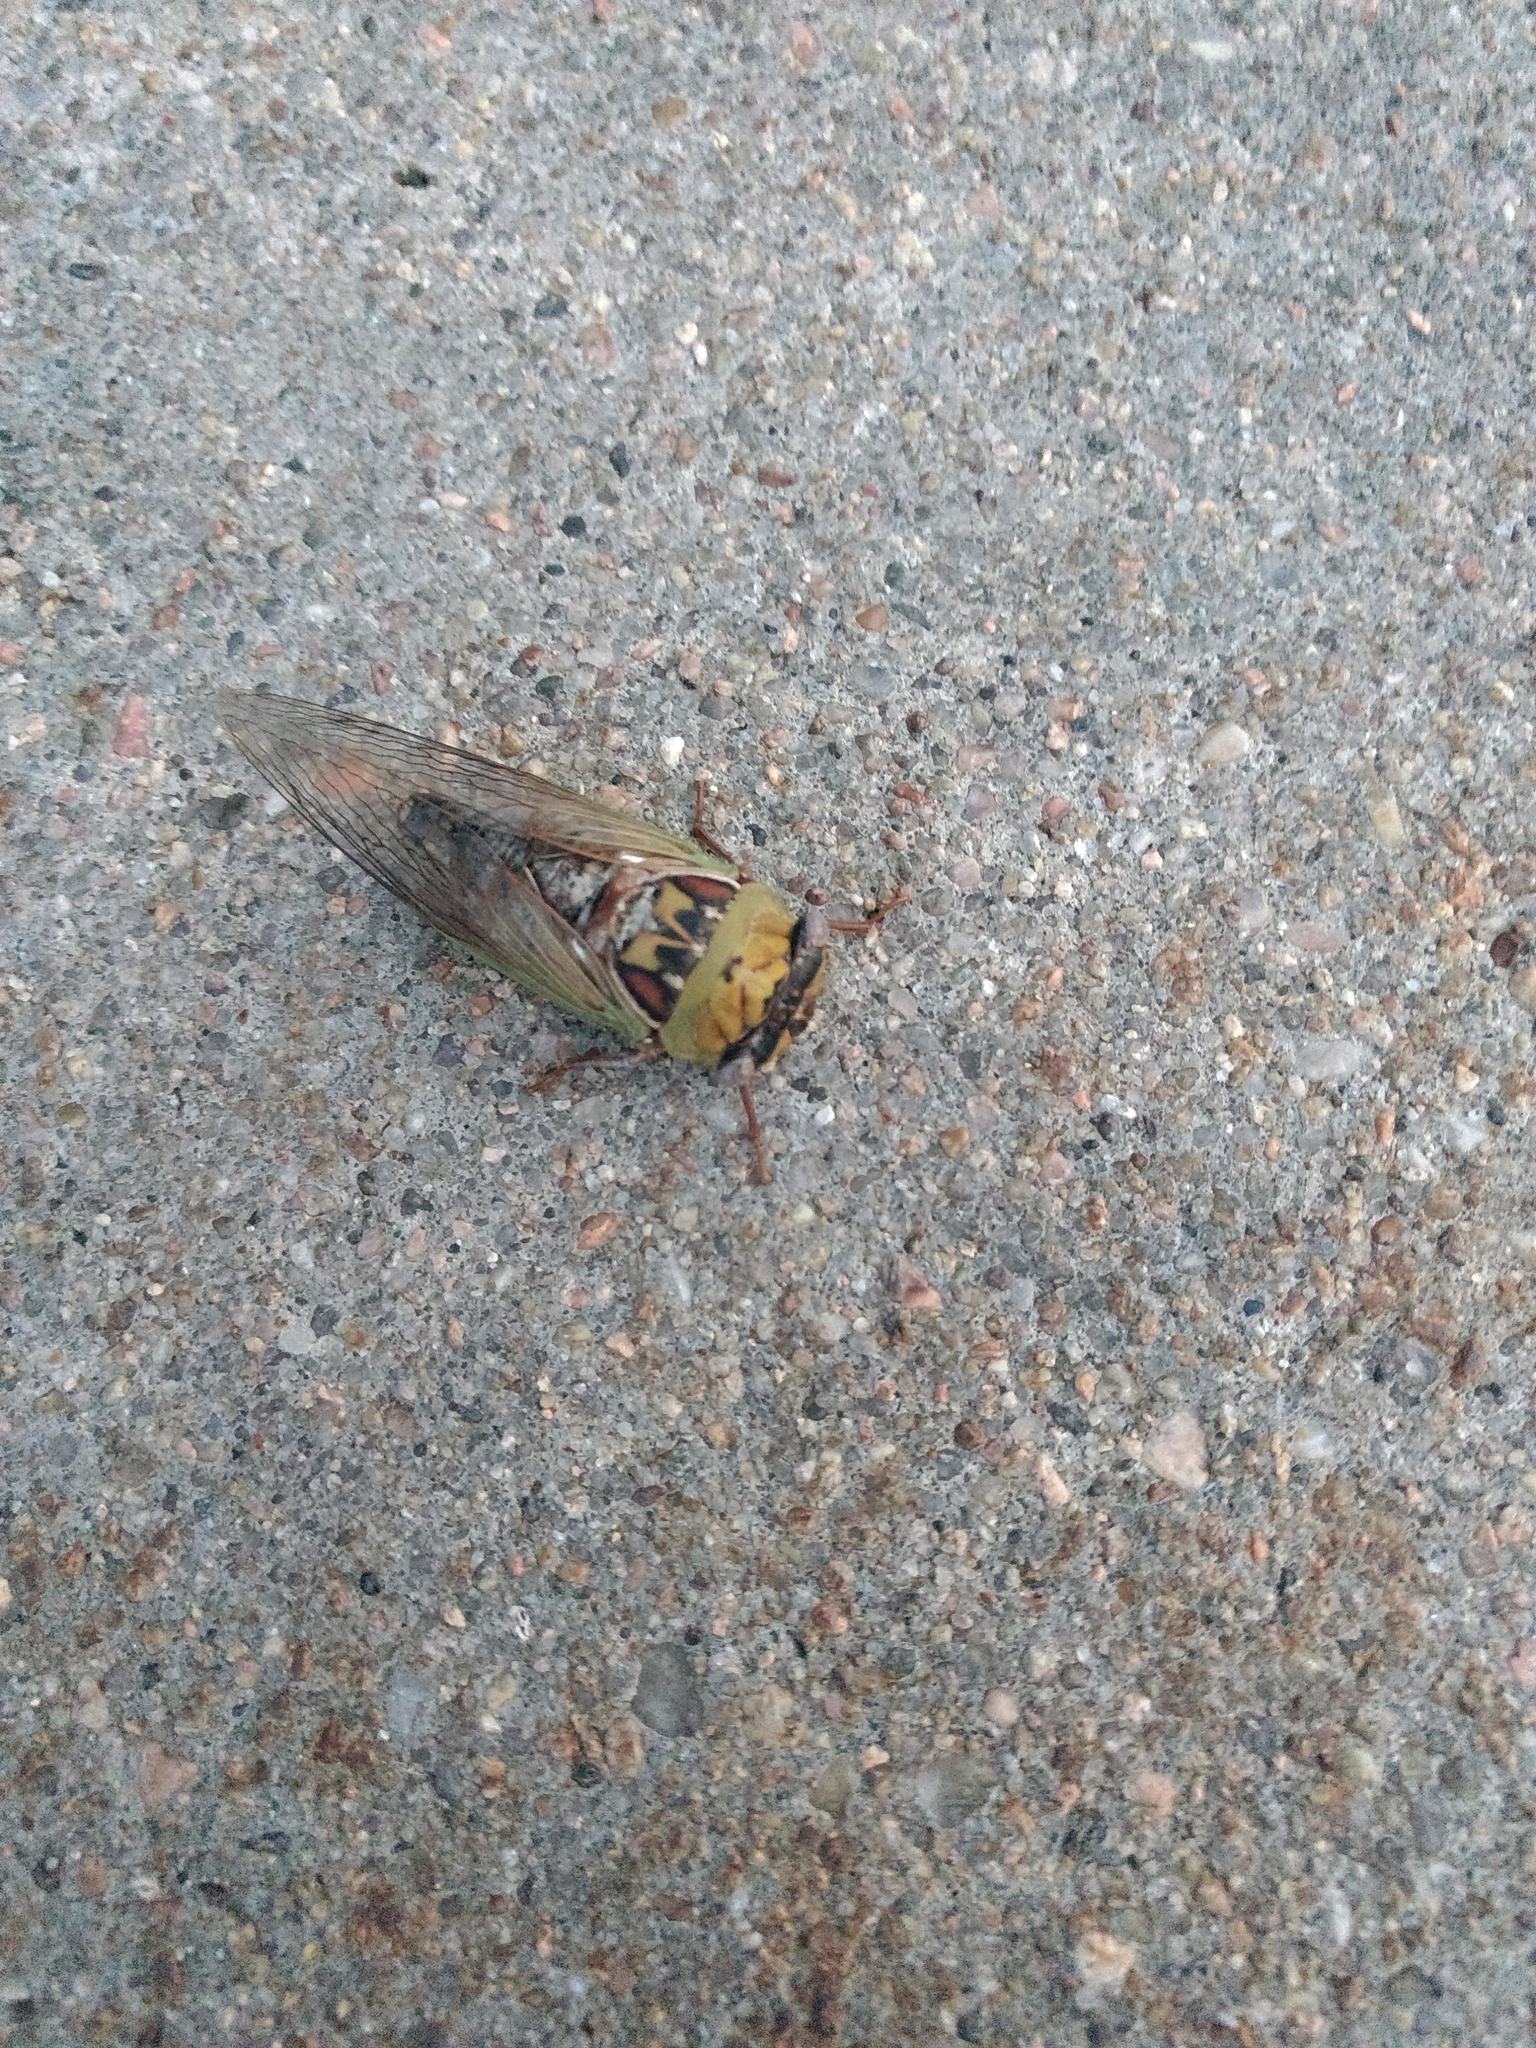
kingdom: Animalia
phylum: Arthropoda
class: Insecta
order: Hemiptera
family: Cicadidae
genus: Megatibicen
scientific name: Megatibicen pronotalis
